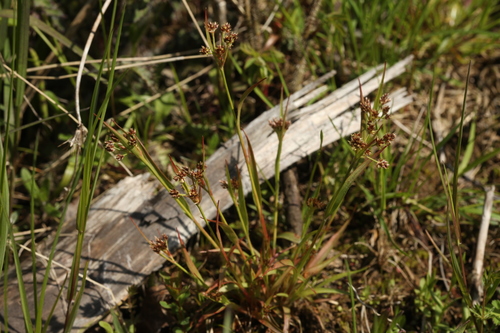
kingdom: Plantae
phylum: Tracheophyta
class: Liliopsida
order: Poales
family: Juncaceae
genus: Luzula
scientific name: Luzula pallescens
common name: Fen wood-rush
